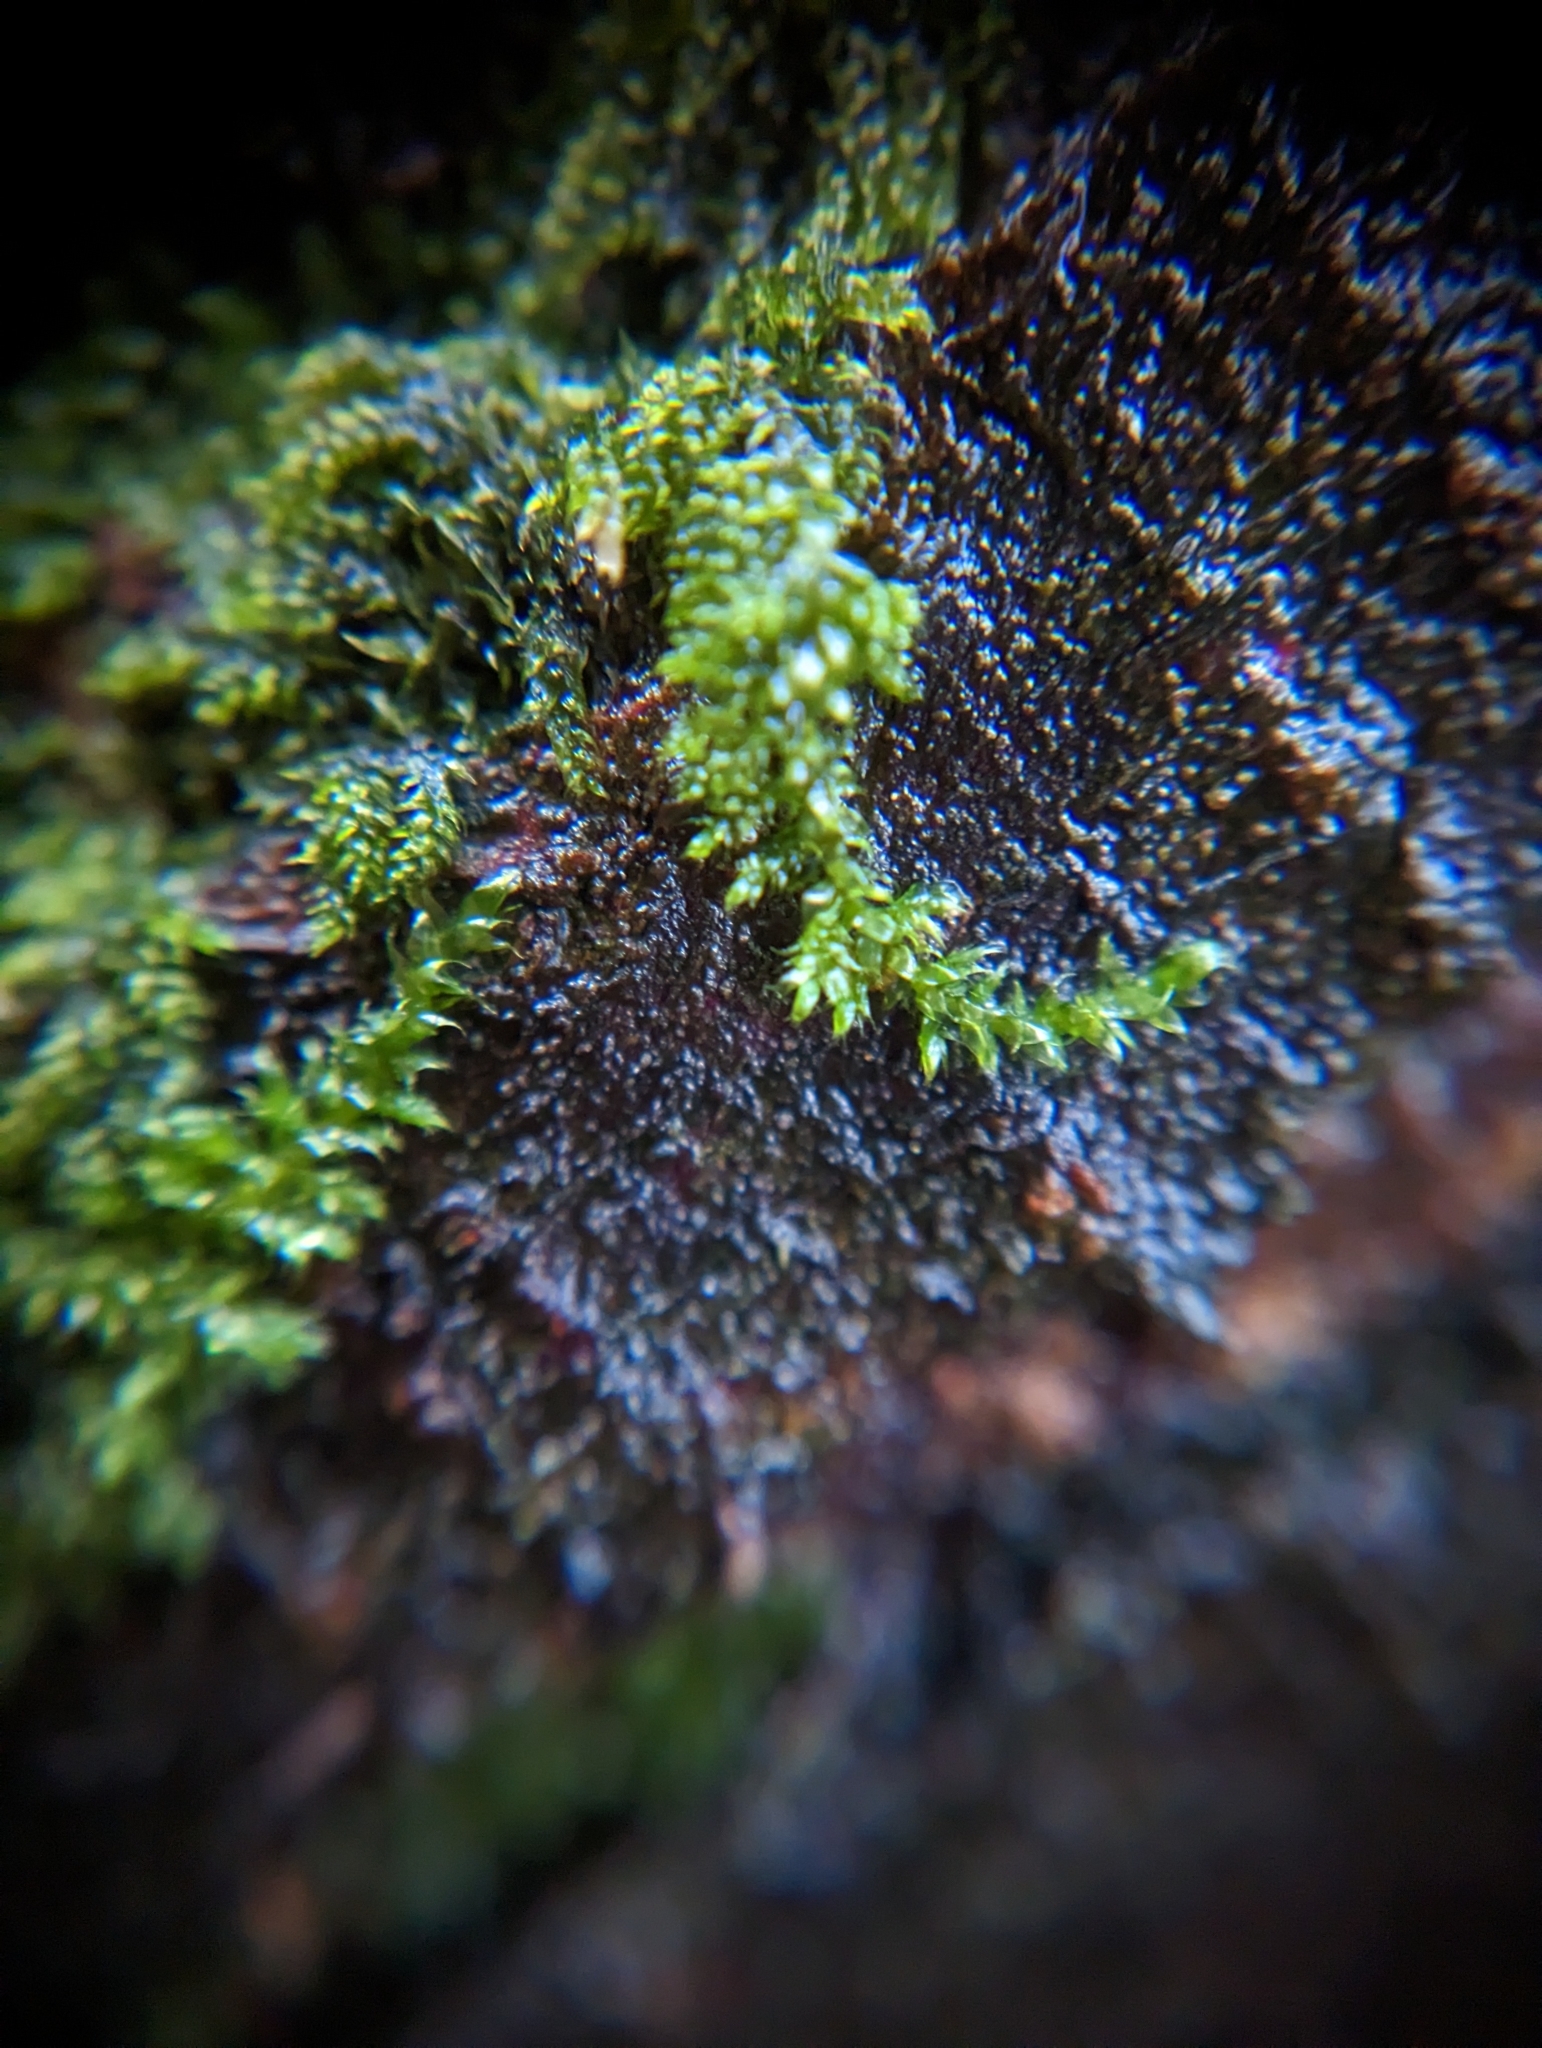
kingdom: Plantae
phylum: Bryophyta
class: Bryopsida
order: Hypnales
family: Pylaisiadelphaceae
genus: Trochophyllohypnum
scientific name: Trochophyllohypnum circinale
